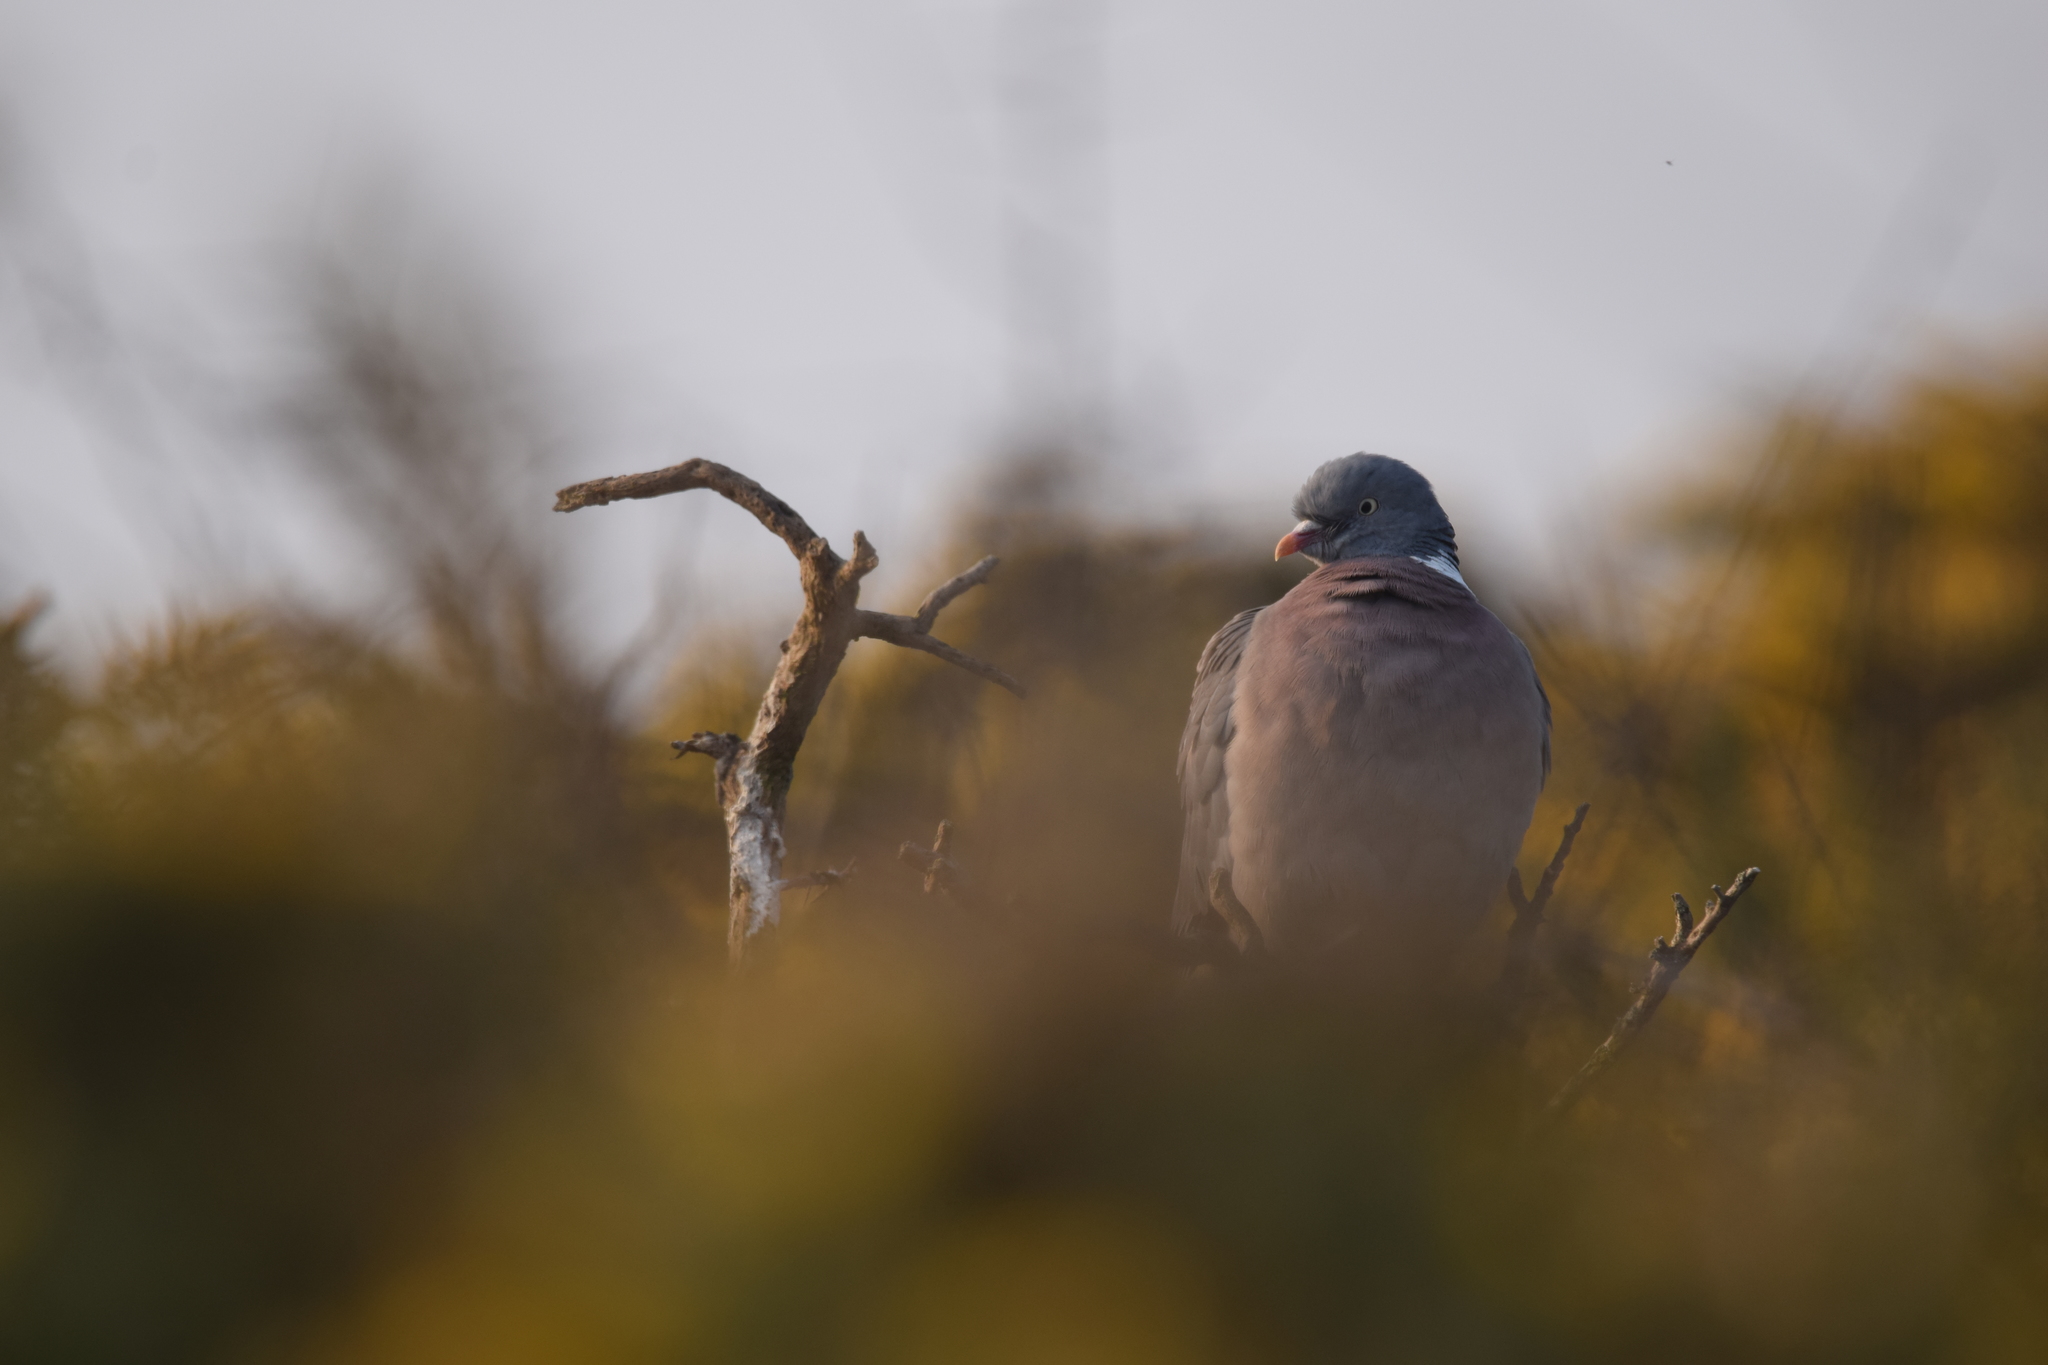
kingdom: Animalia
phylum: Chordata
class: Aves
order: Columbiformes
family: Columbidae
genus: Columba
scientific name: Columba palumbus
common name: Common wood pigeon
